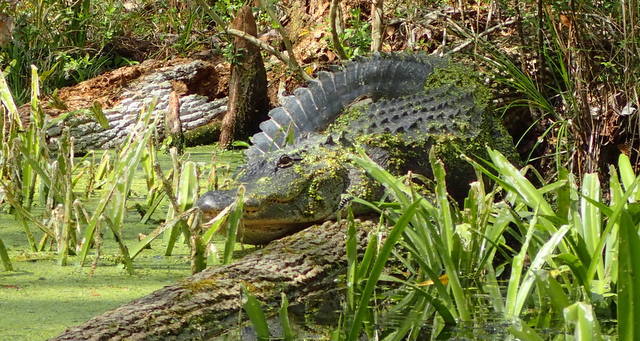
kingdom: Animalia
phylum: Chordata
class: Crocodylia
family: Alligatoridae
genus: Alligator
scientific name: Alligator mississippiensis
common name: American alligator
